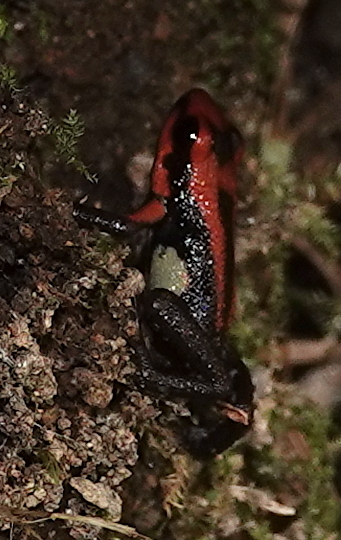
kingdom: Animalia
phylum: Chordata
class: Amphibia
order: Anura
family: Dendrobatidae
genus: Andinobates
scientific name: Andinobates bombetes
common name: Cauca poison frog
